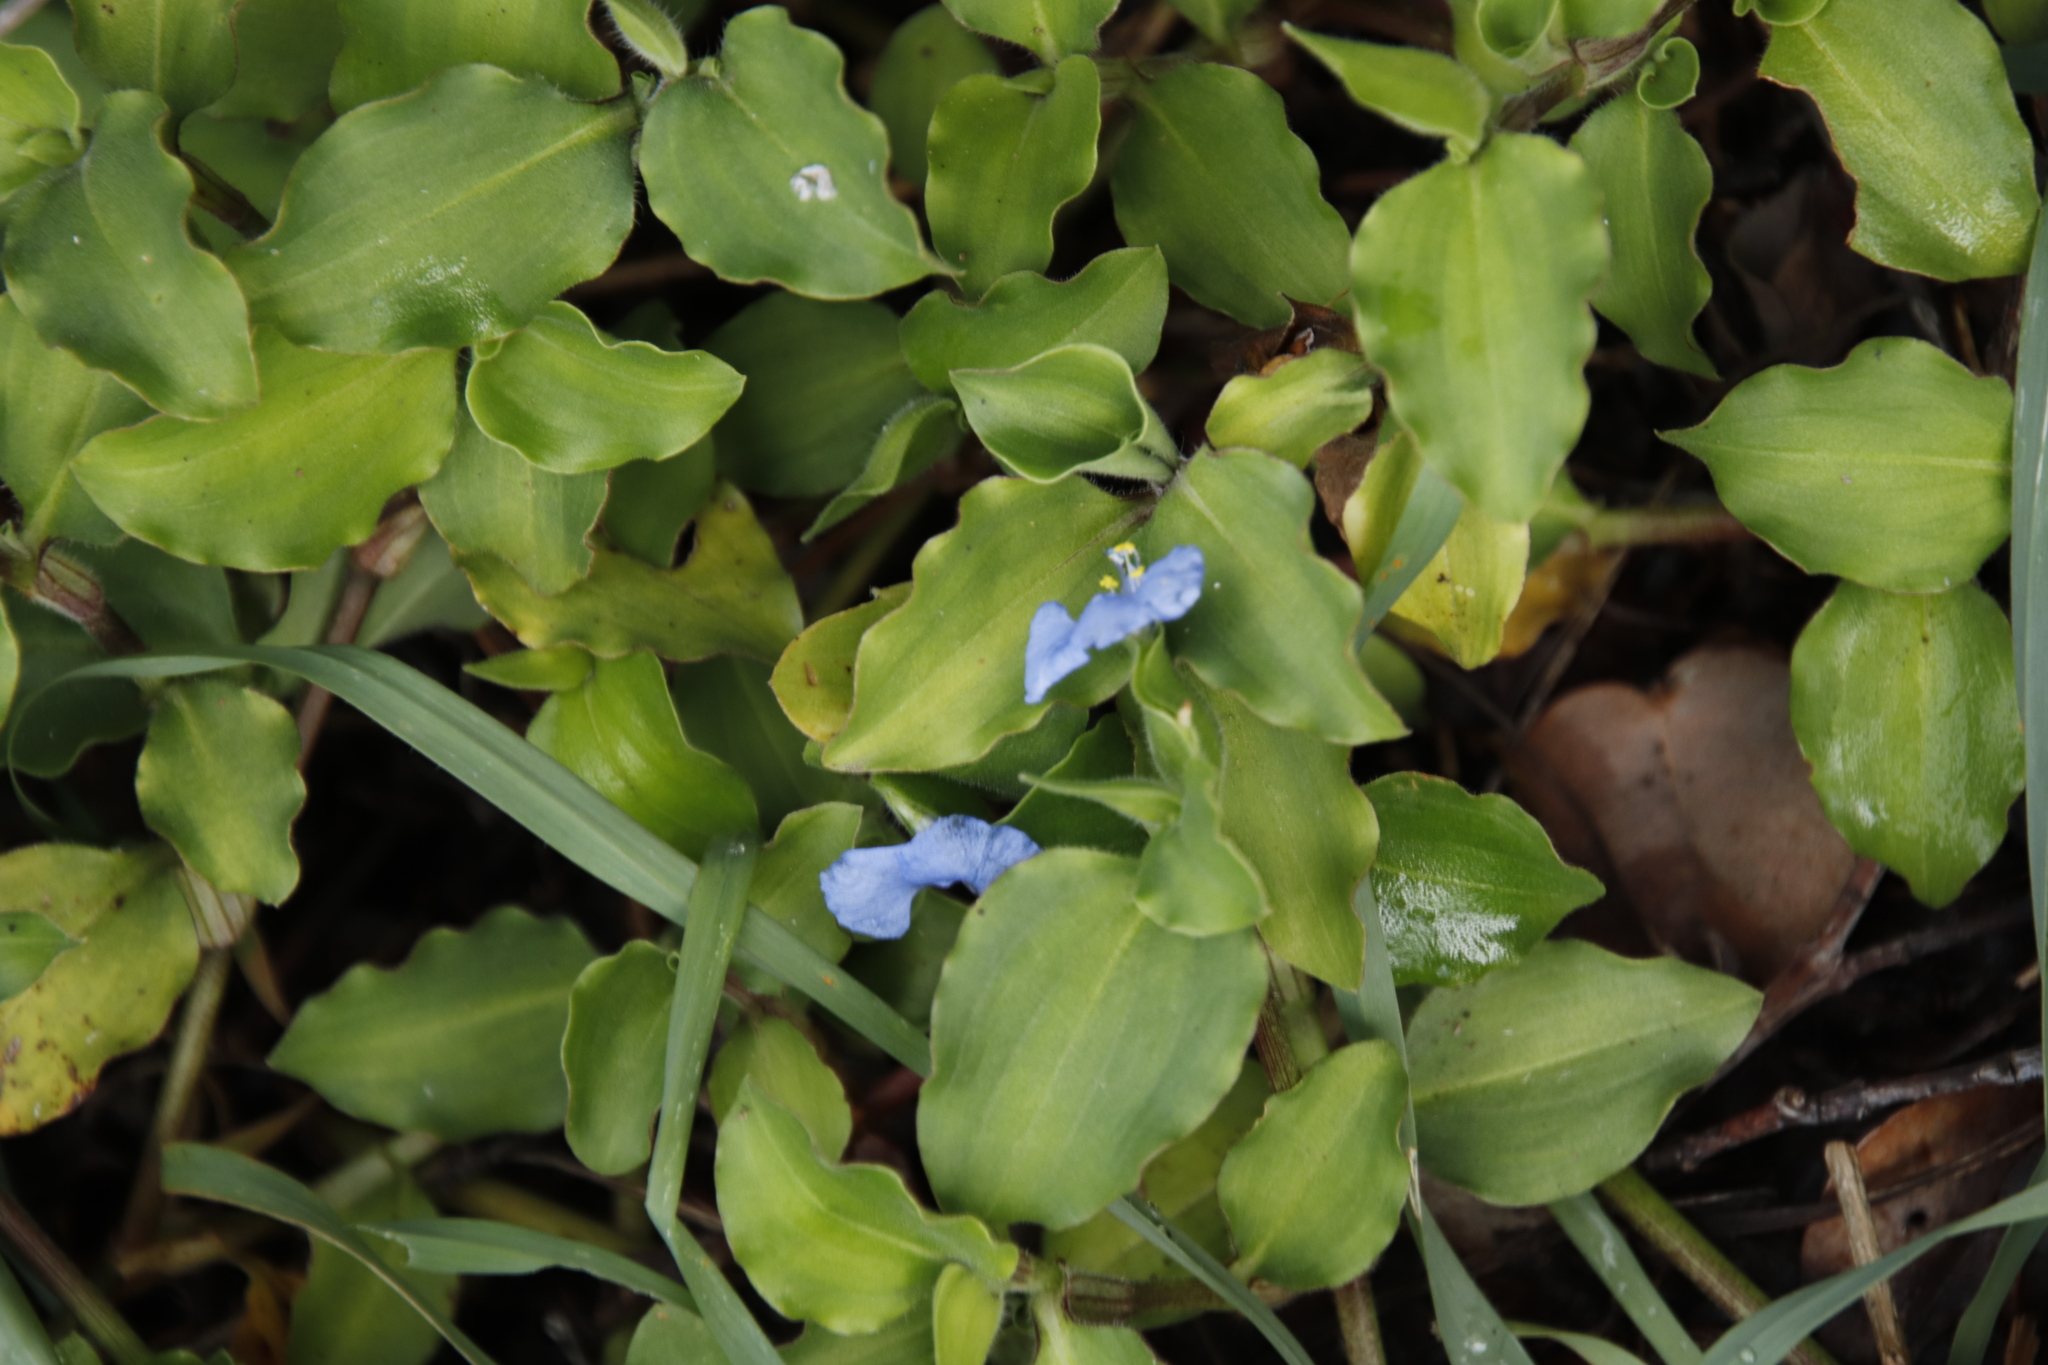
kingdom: Plantae
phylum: Tracheophyta
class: Liliopsida
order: Commelinales
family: Commelinaceae
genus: Commelina
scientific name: Commelina benghalensis
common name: Jio
